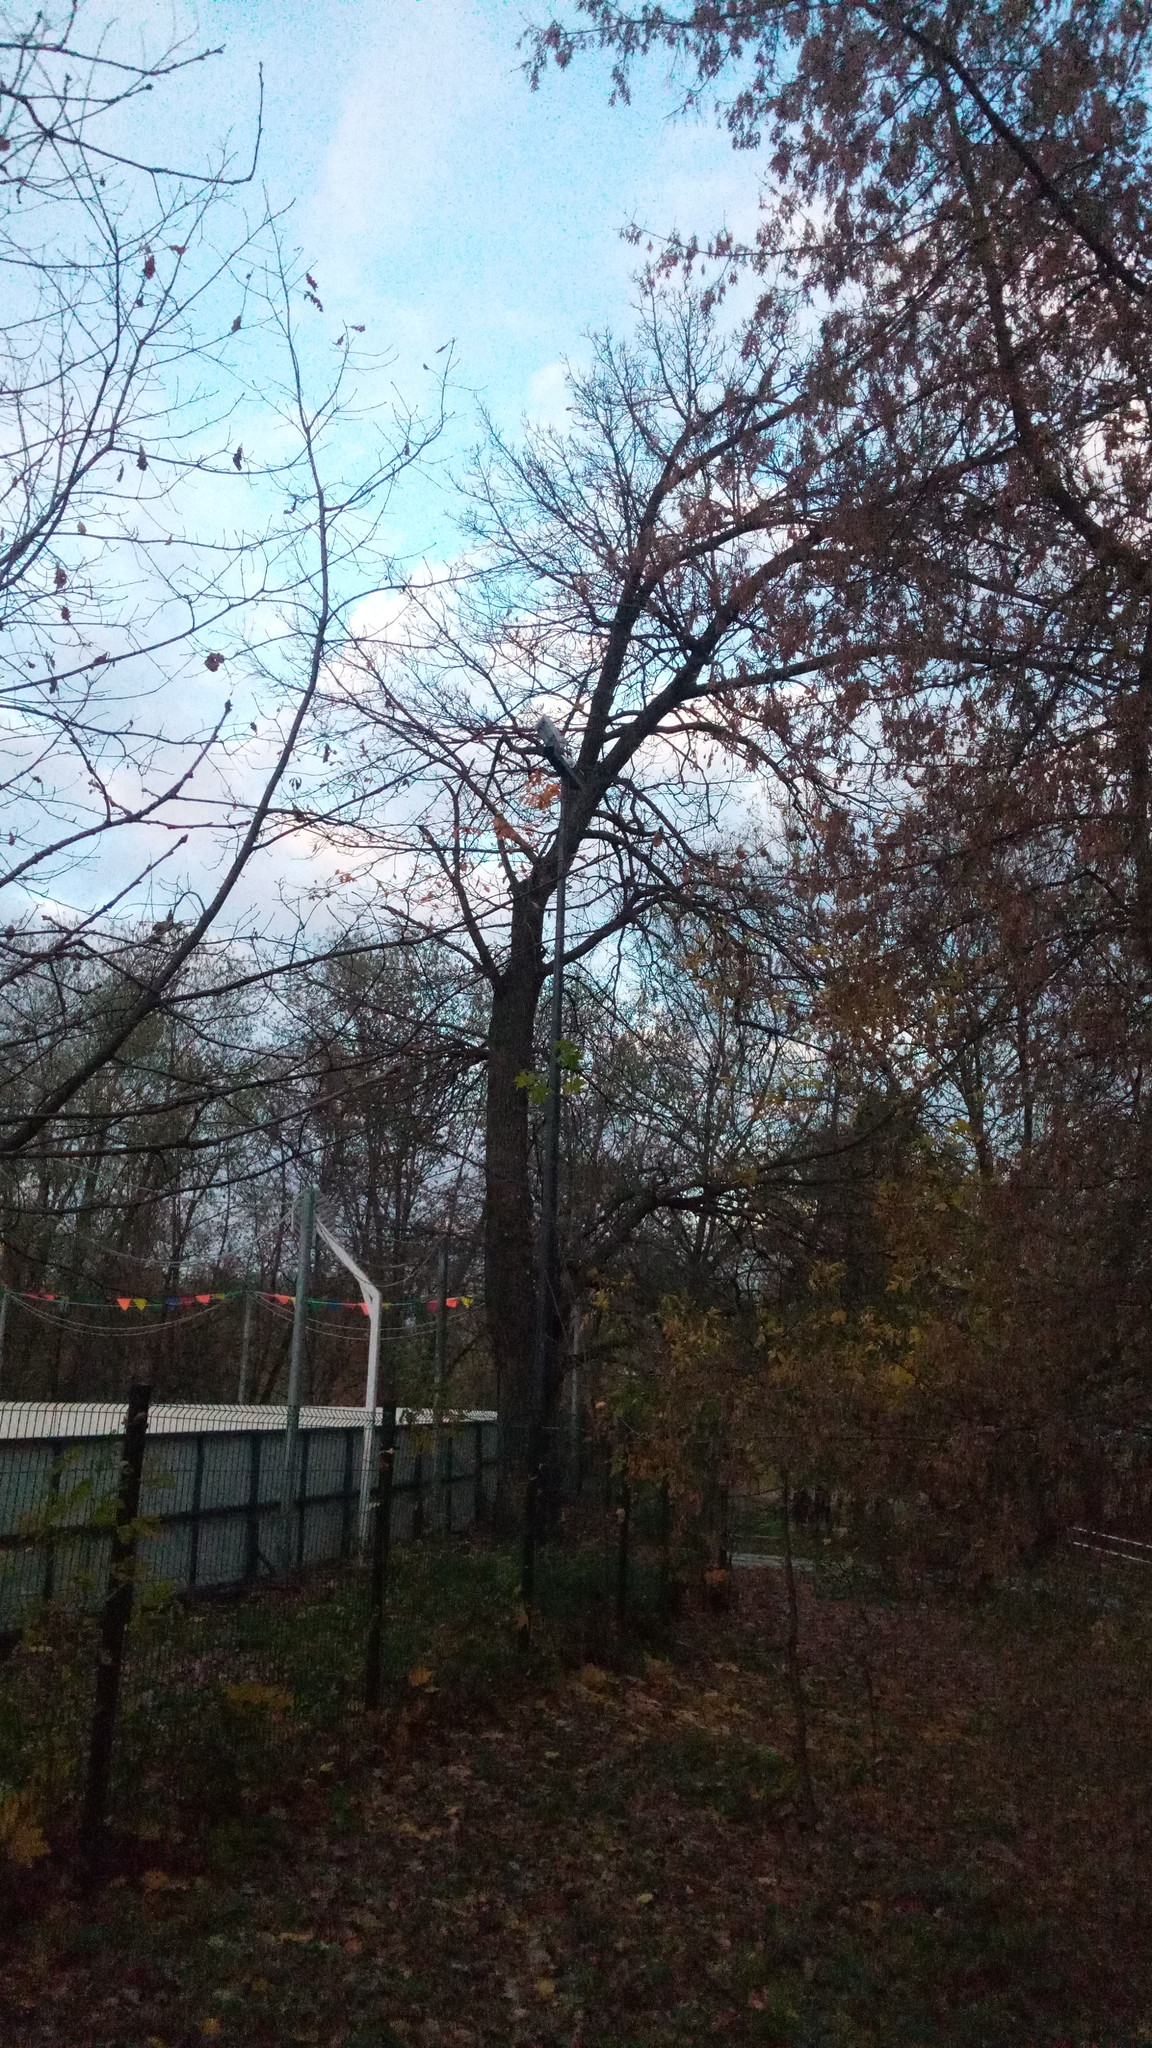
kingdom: Plantae
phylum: Tracheophyta
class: Magnoliopsida
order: Fagales
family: Fagaceae
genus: Quercus
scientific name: Quercus robur
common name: Pedunculate oak
